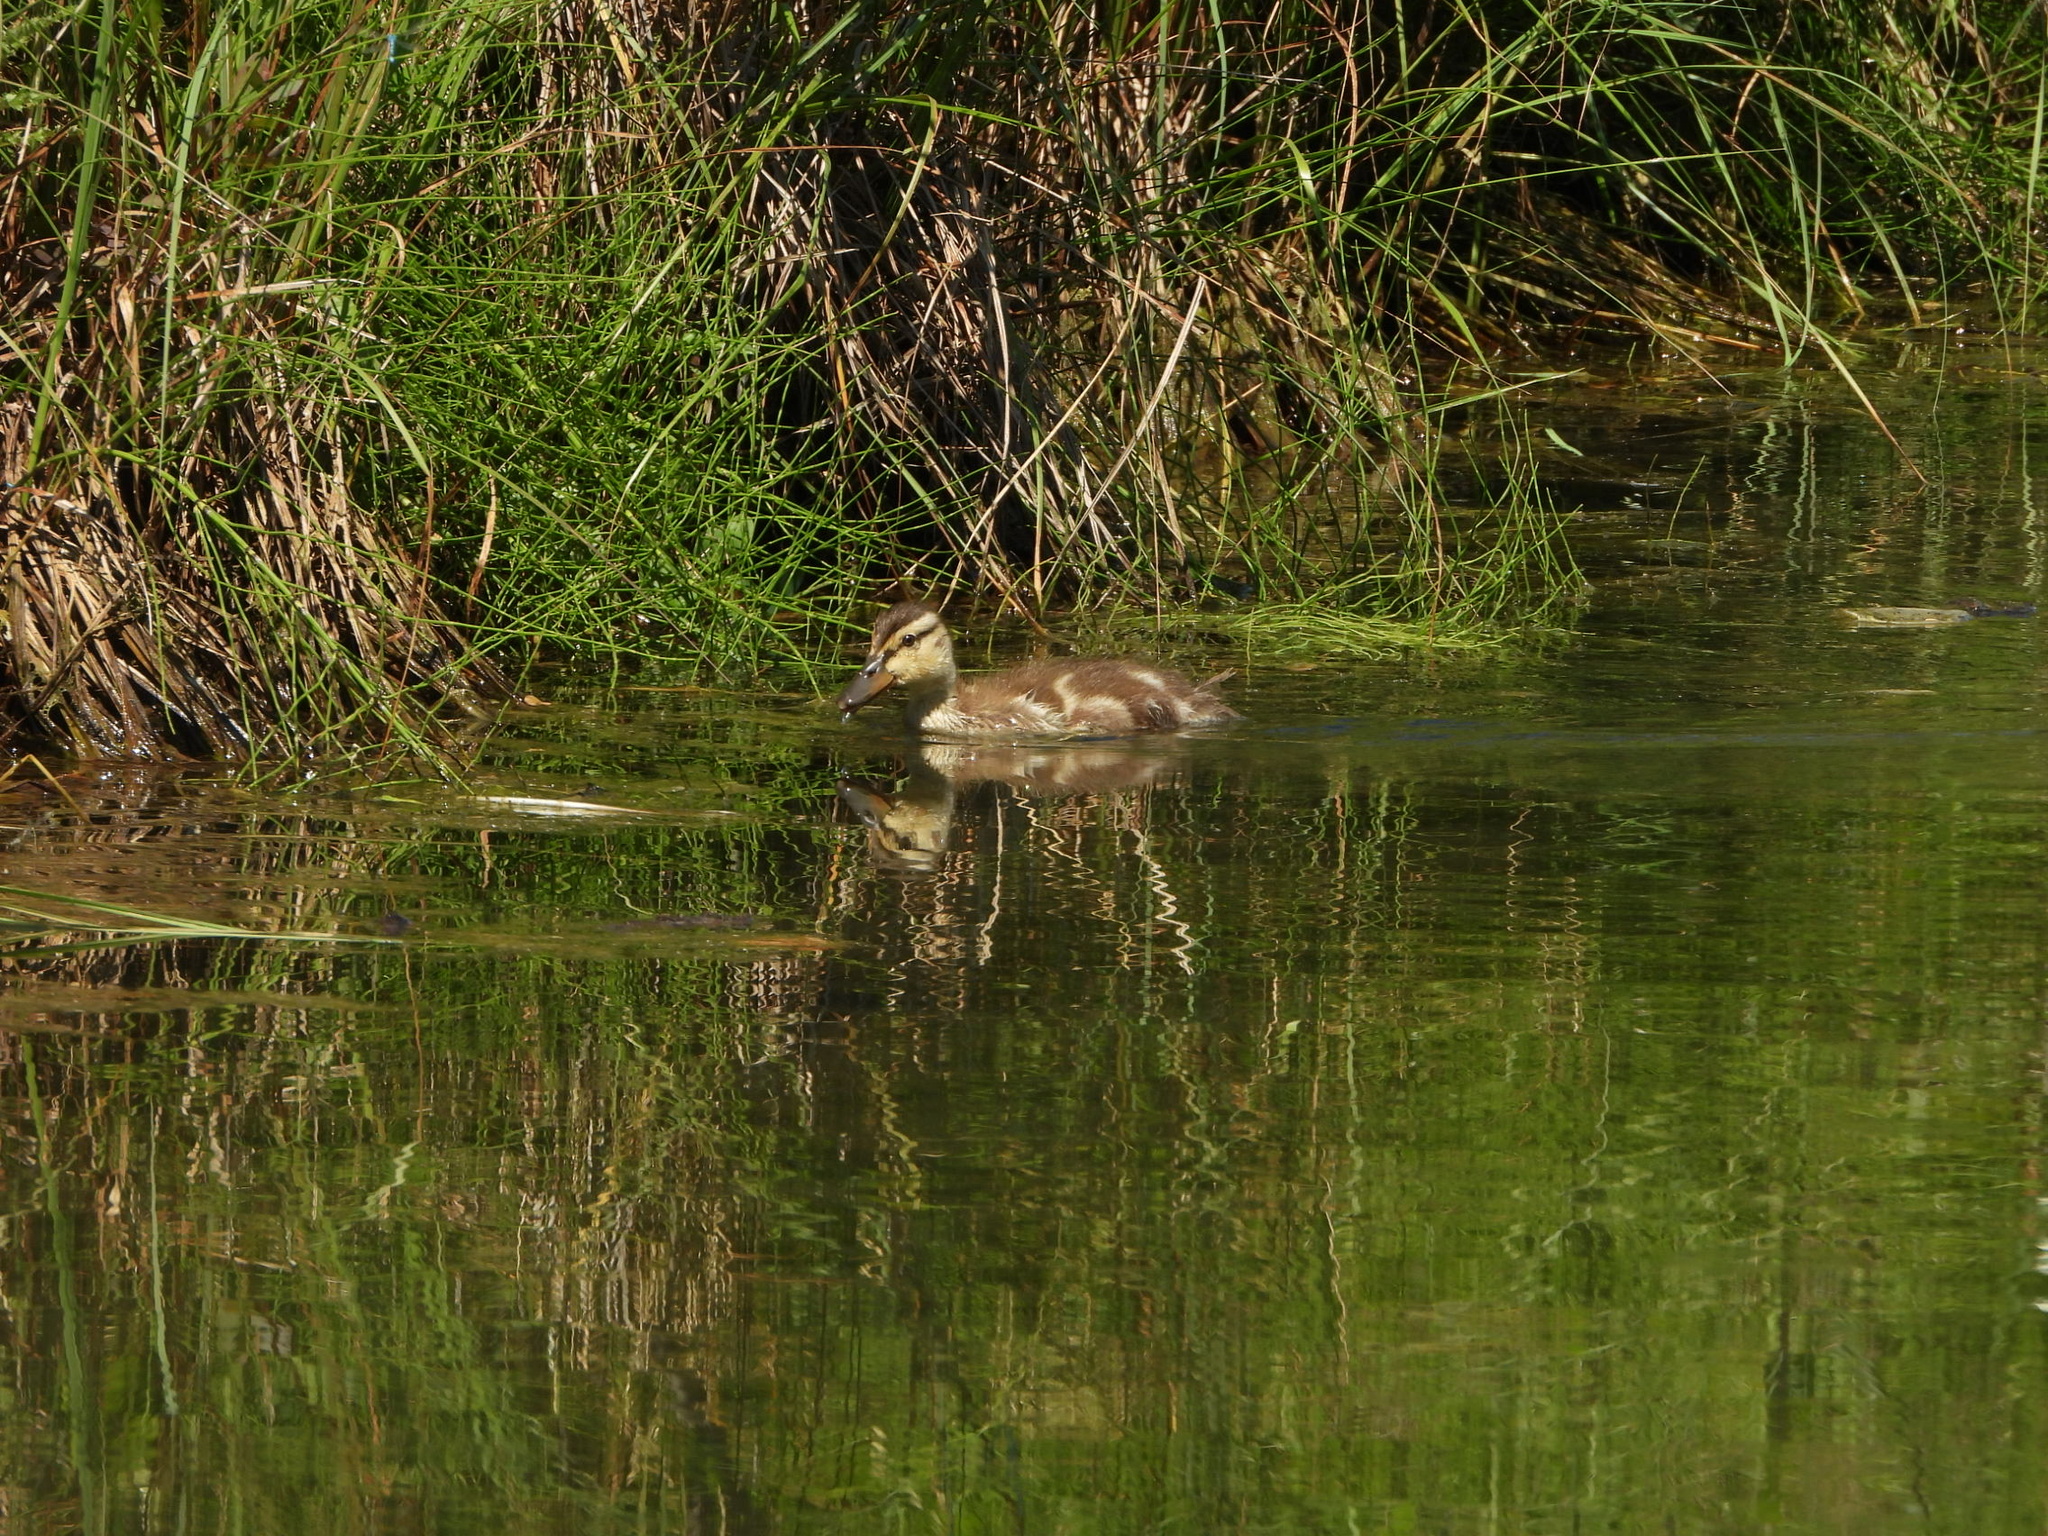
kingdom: Animalia
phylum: Chordata
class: Aves
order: Anseriformes
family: Anatidae
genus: Anas
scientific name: Anas platyrhynchos
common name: Mallard
